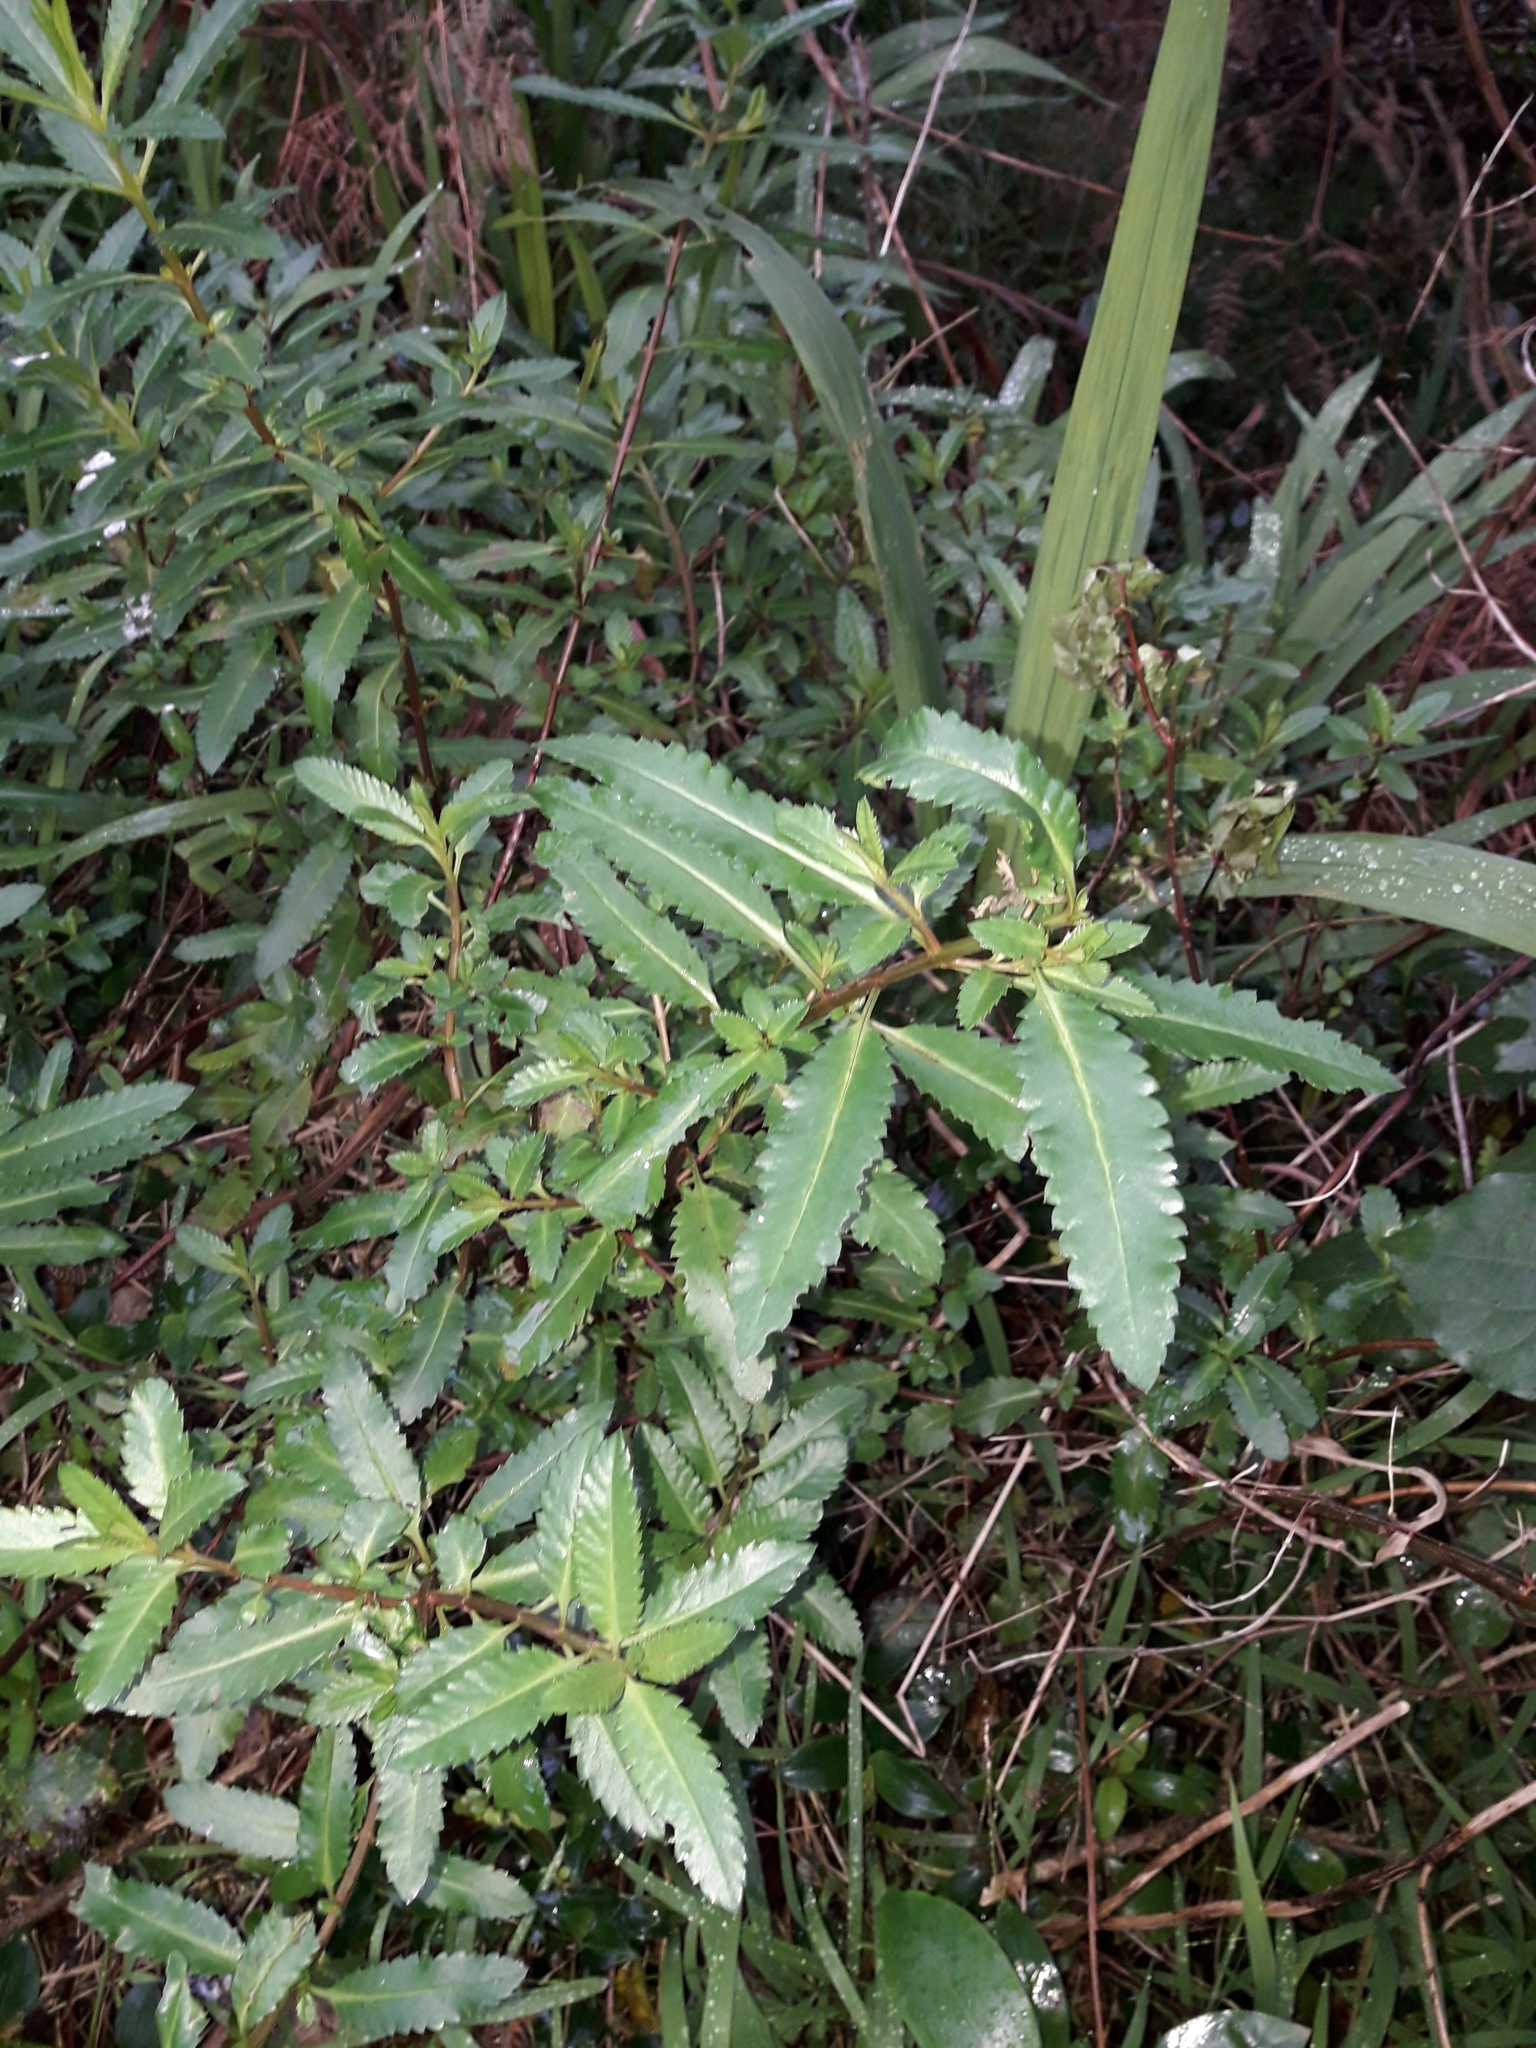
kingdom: Plantae
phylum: Tracheophyta
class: Magnoliopsida
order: Saxifragales
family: Haloragaceae
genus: Haloragis
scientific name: Haloragis erecta
